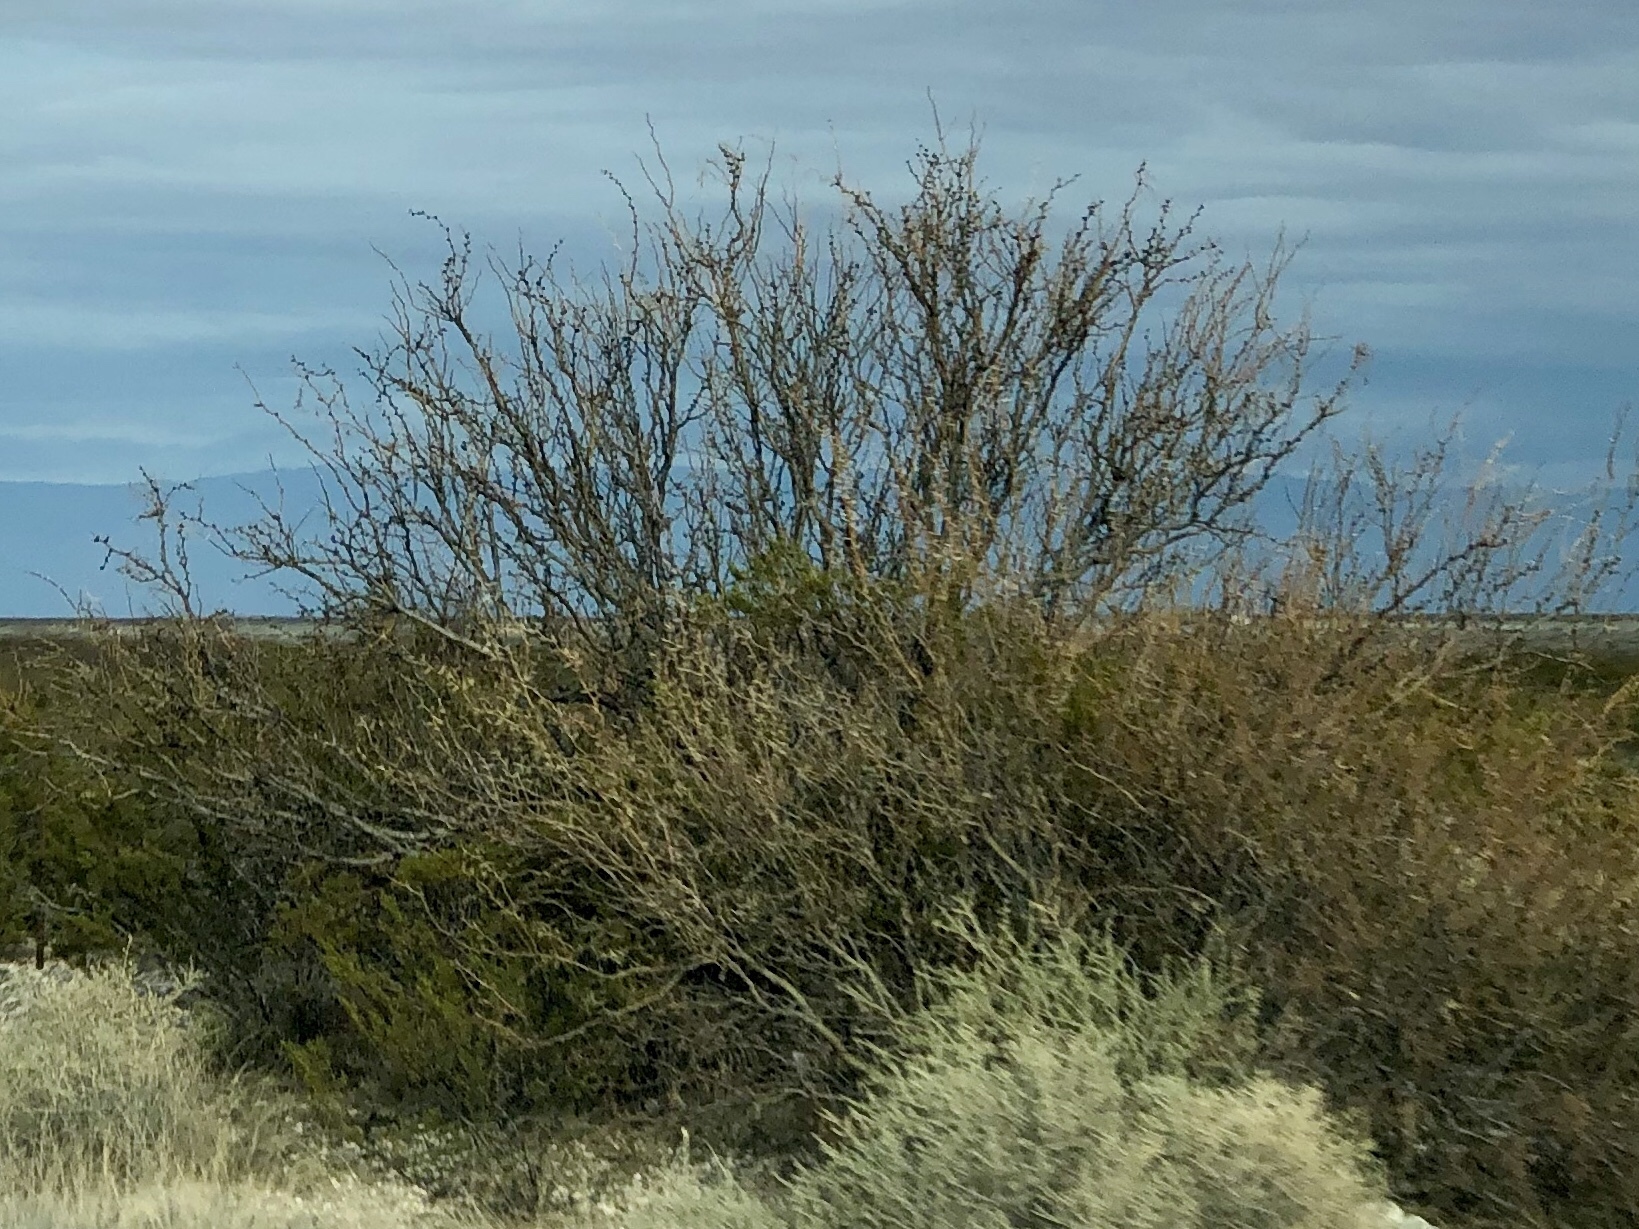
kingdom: Plantae
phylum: Tracheophyta
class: Magnoliopsida
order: Fabales
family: Fabaceae
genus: Prosopis
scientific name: Prosopis glandulosa
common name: Honey mesquite
